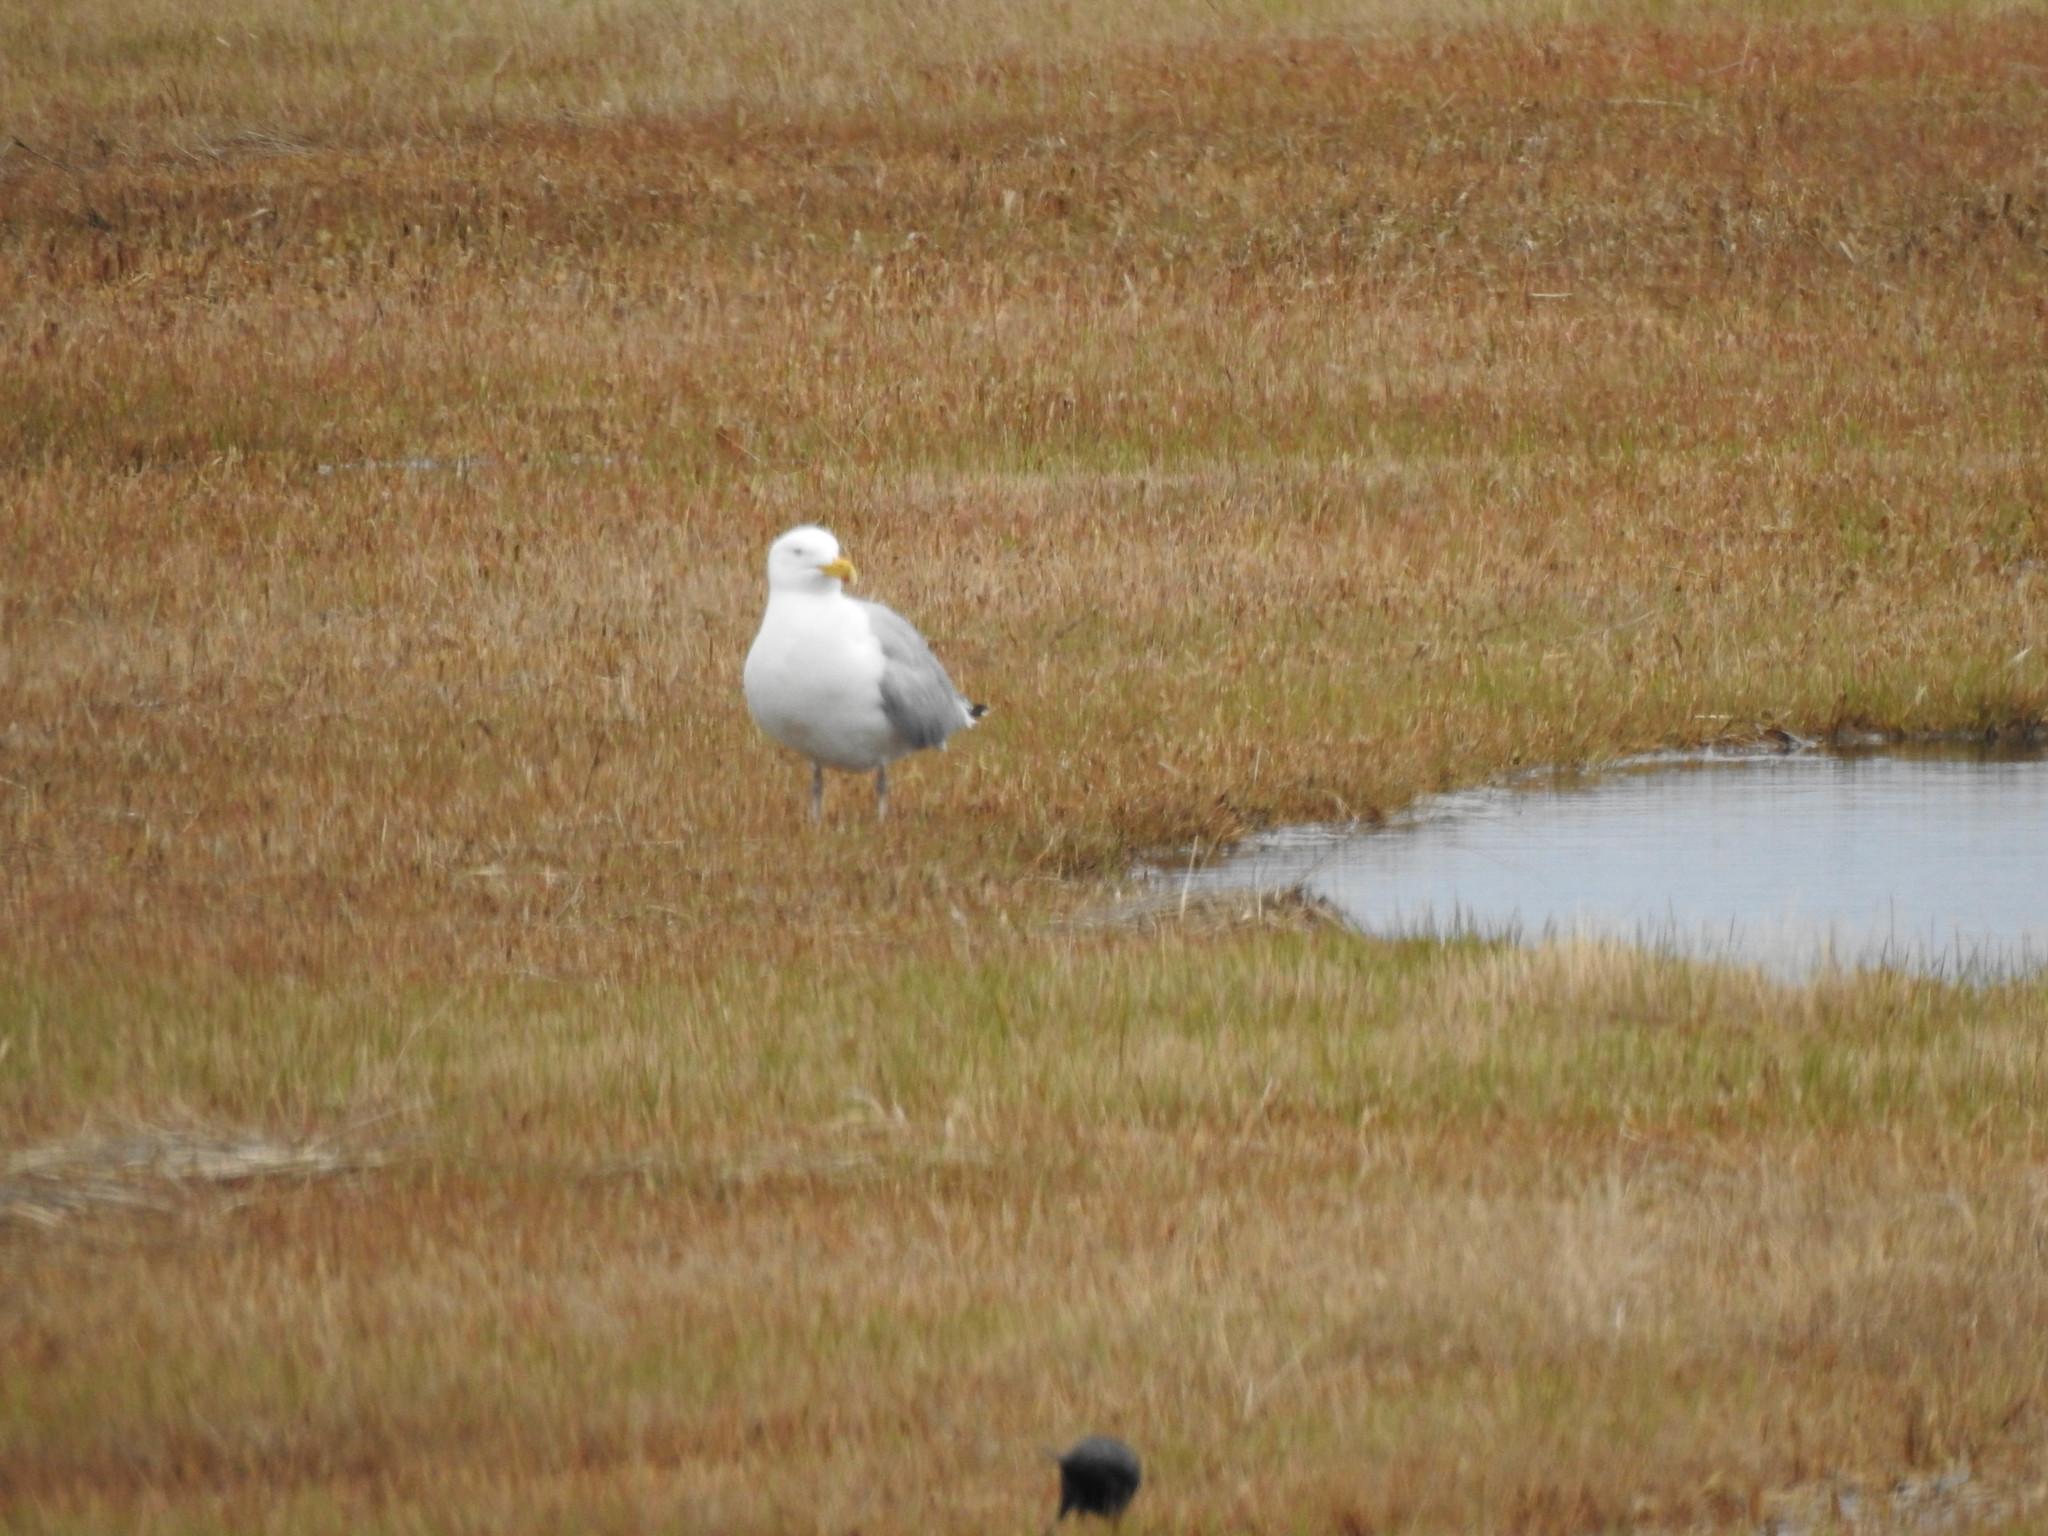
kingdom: Animalia
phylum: Chordata
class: Aves
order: Charadriiformes
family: Laridae
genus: Larus
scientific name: Larus argentatus
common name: Herring gull
